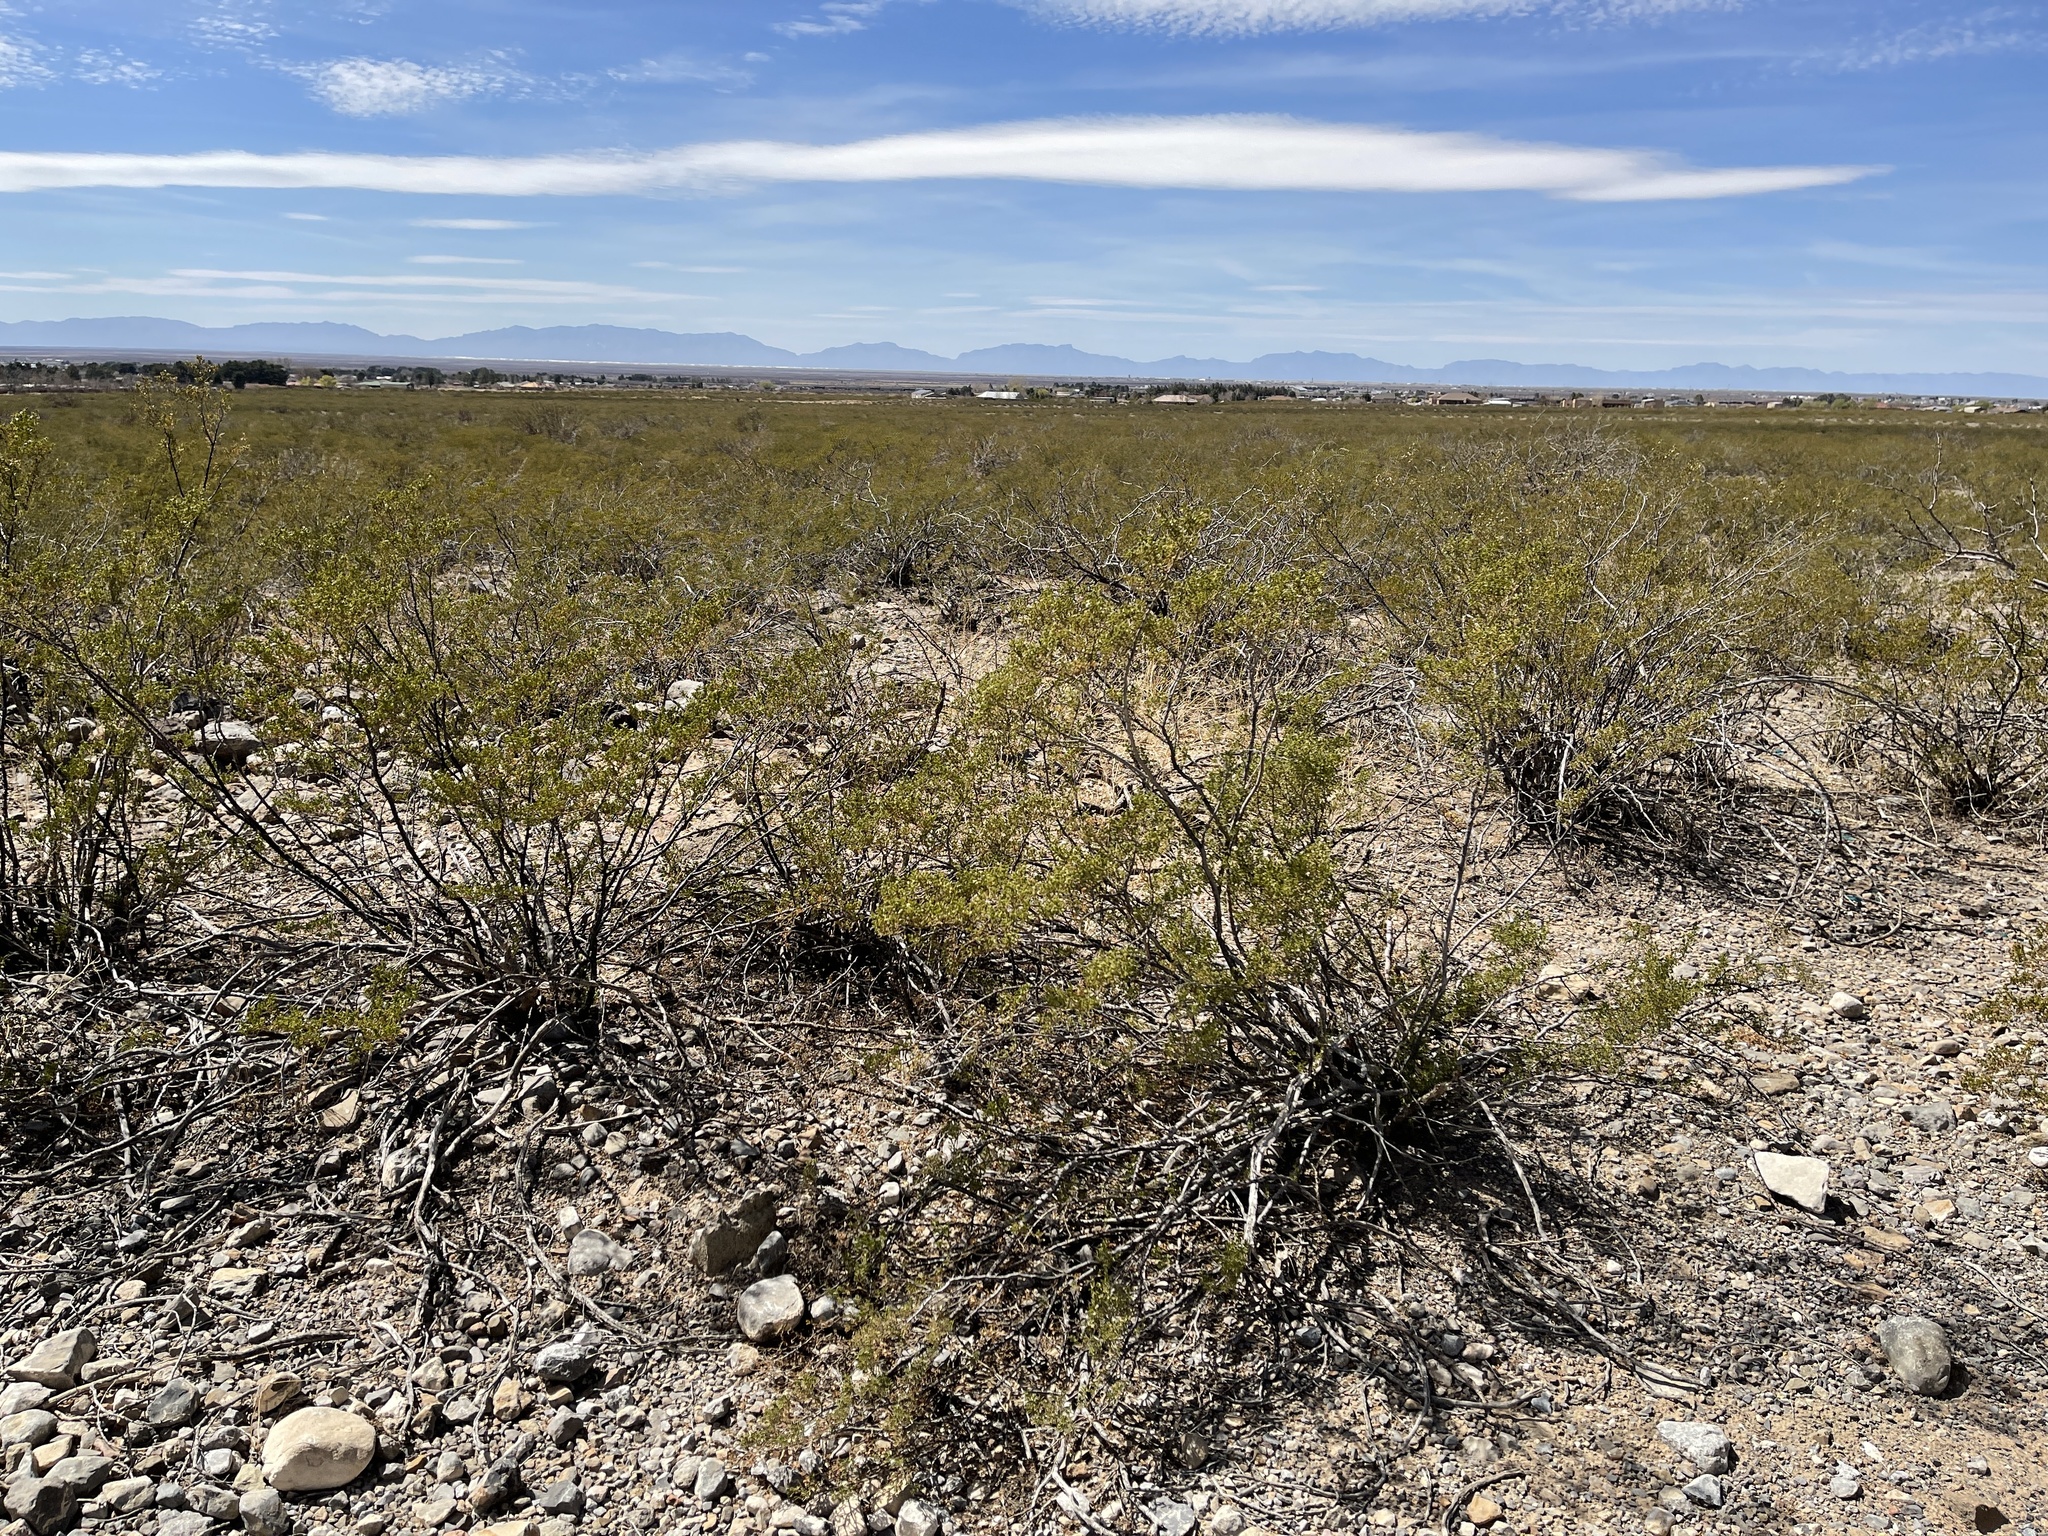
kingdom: Plantae
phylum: Tracheophyta
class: Magnoliopsida
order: Zygophyllales
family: Zygophyllaceae
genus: Larrea
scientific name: Larrea tridentata
